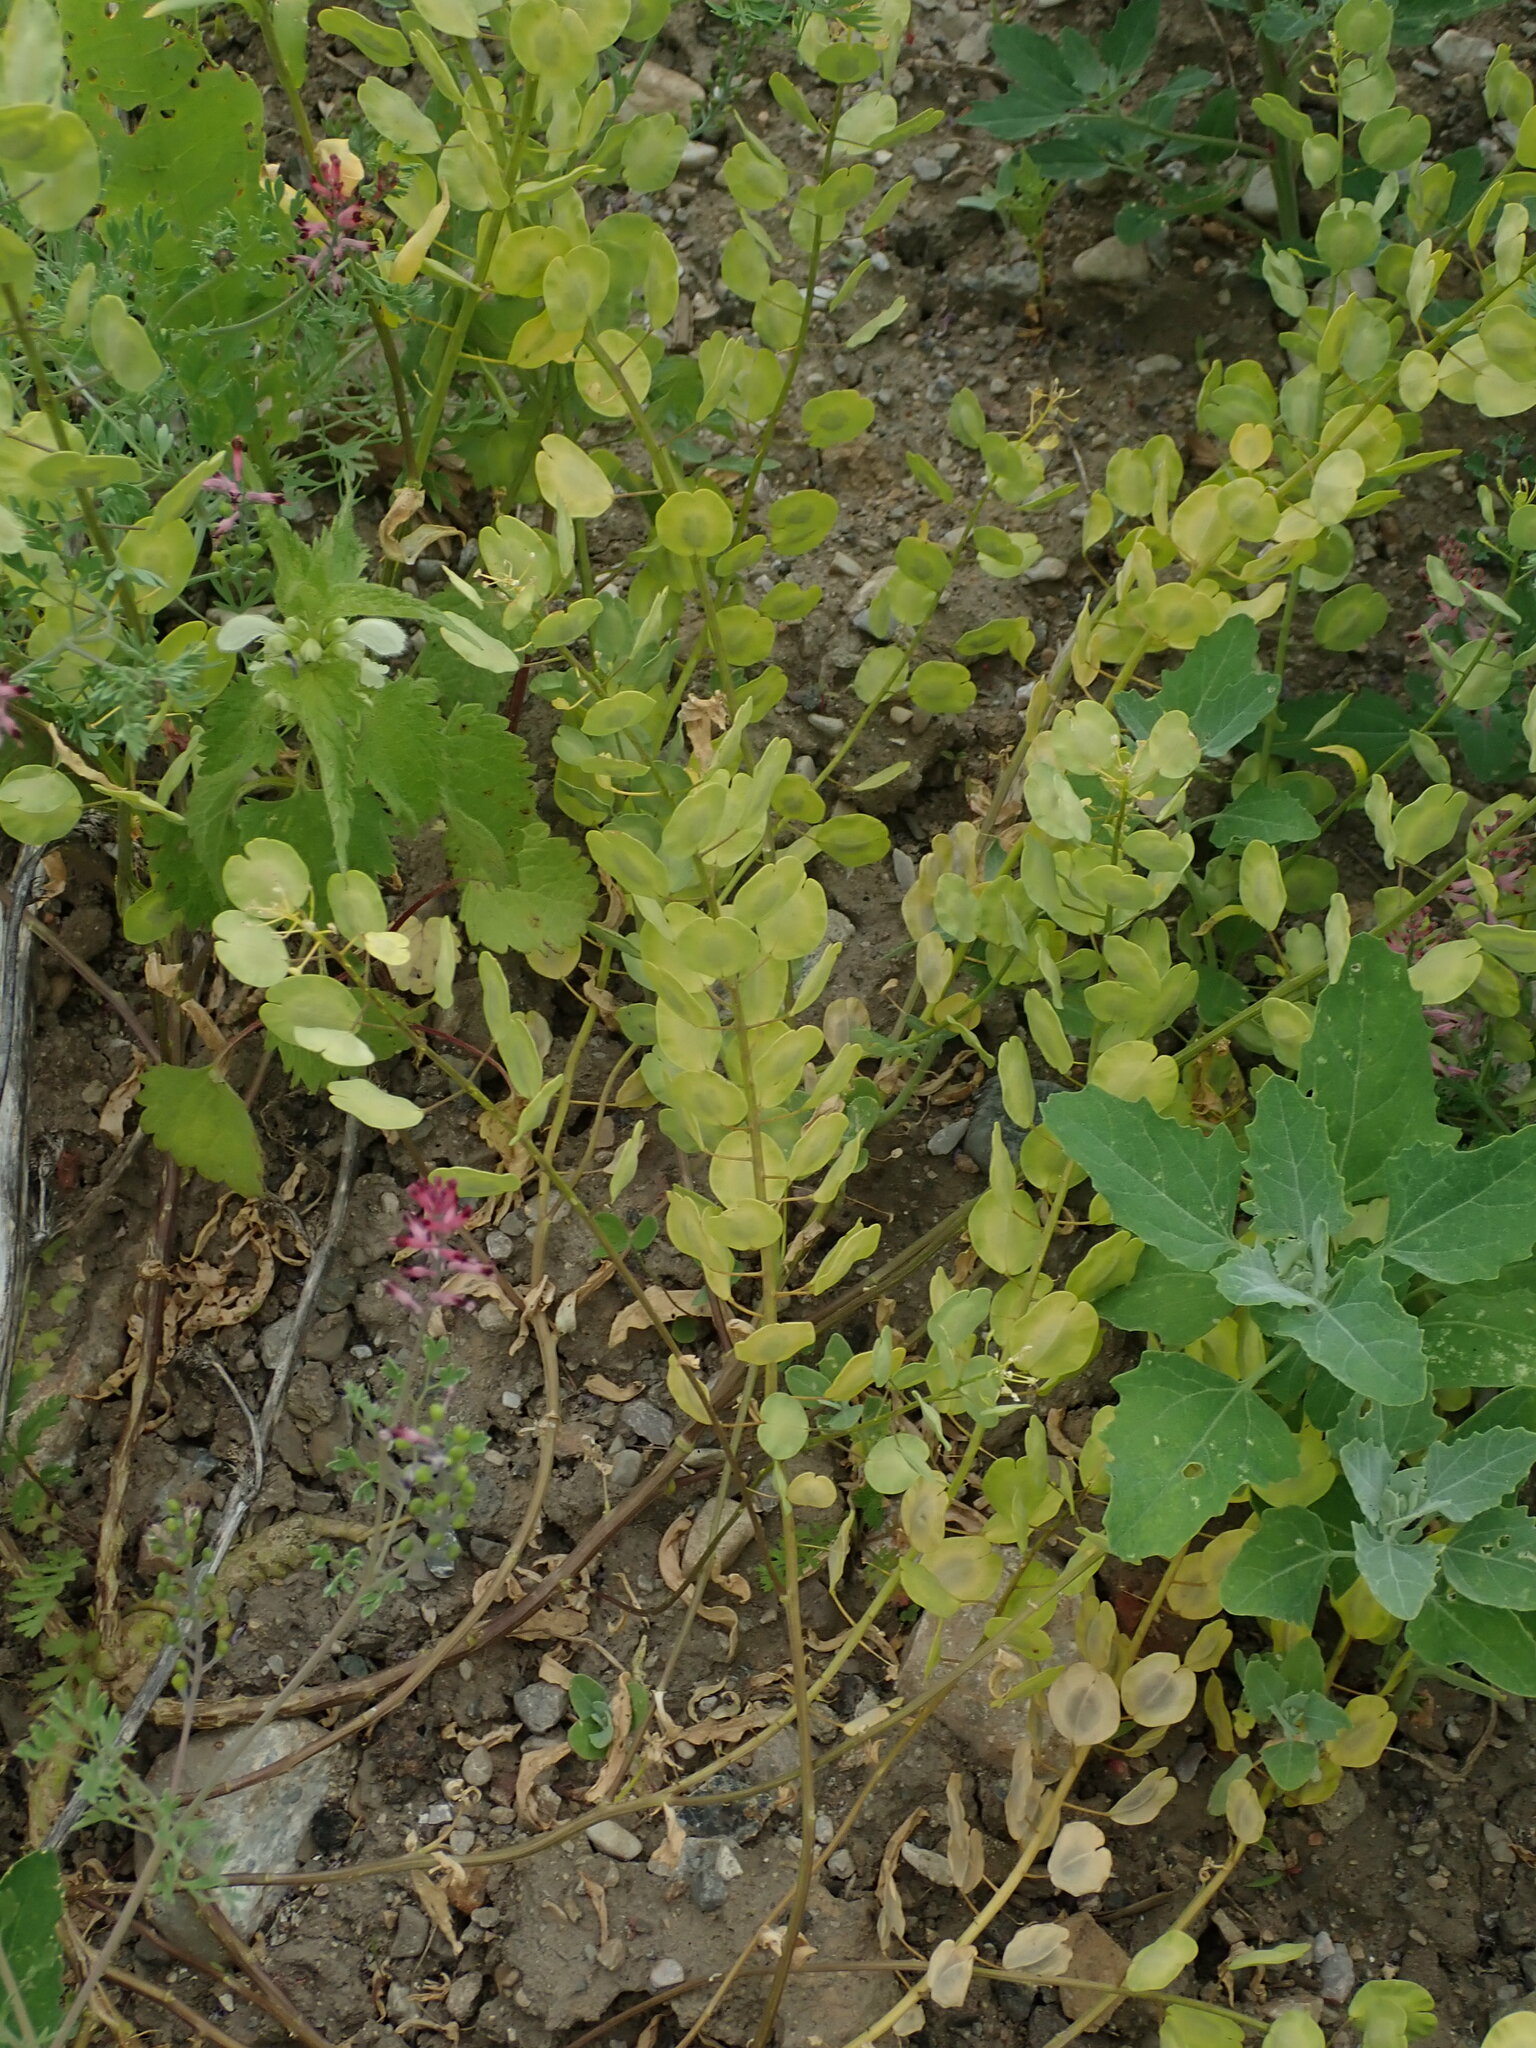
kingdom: Plantae
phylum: Tracheophyta
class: Magnoliopsida
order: Brassicales
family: Brassicaceae
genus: Thlaspi
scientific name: Thlaspi arvense
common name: Field pennycress
